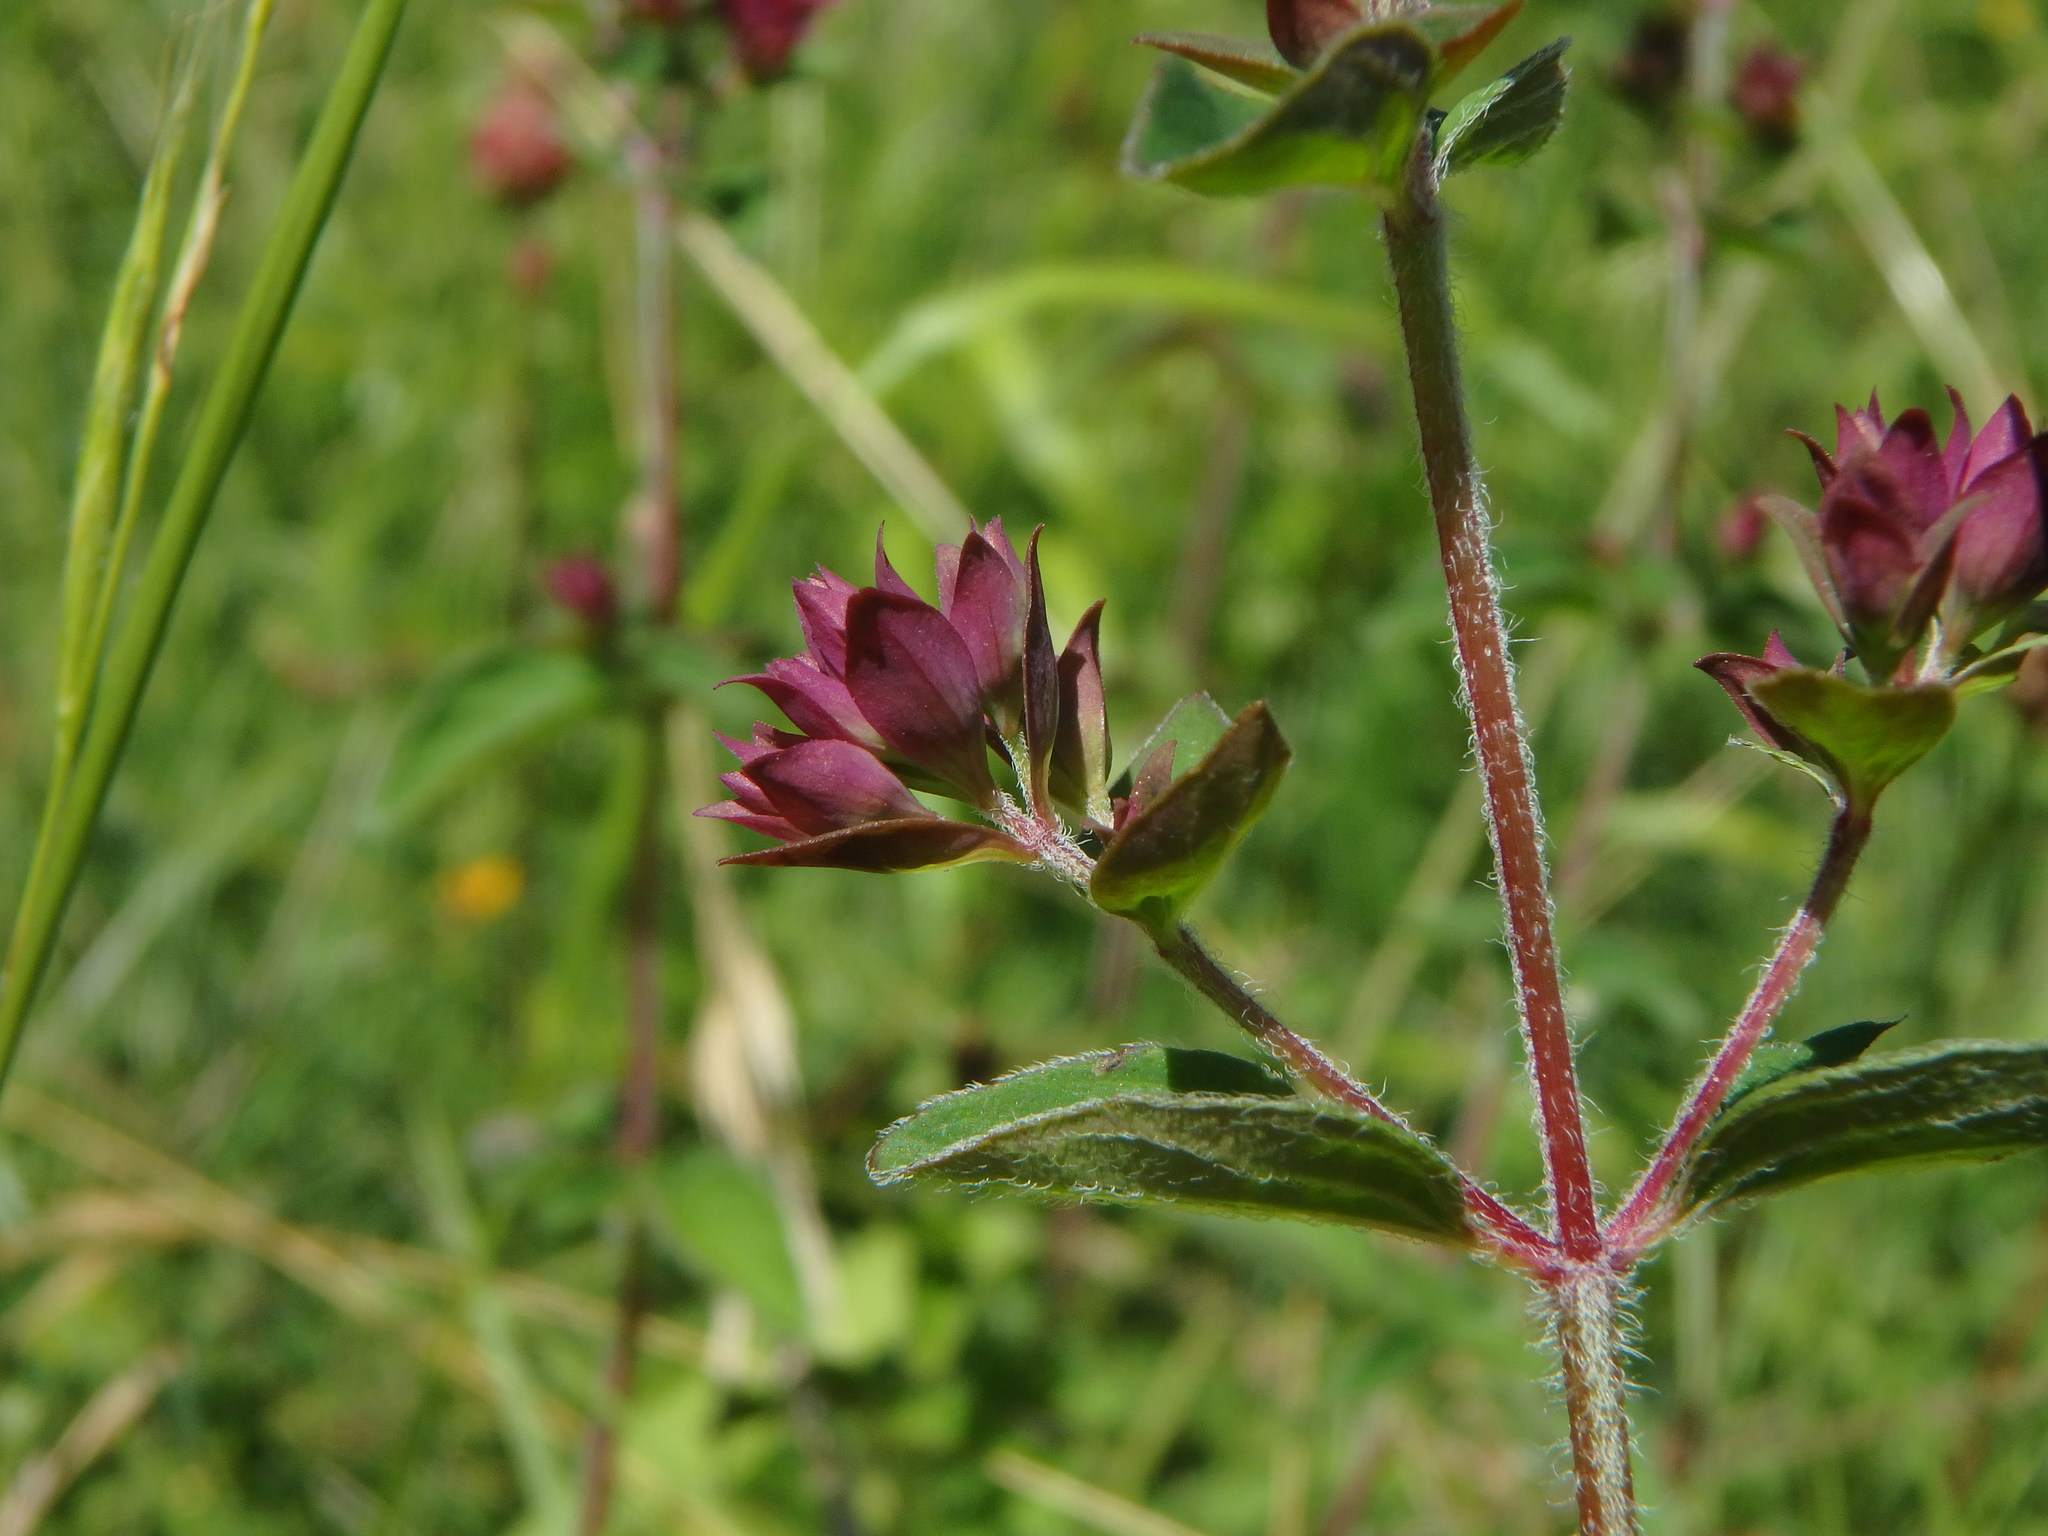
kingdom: Plantae
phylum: Tracheophyta
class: Magnoliopsida
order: Lamiales
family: Lamiaceae
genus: Origanum
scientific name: Origanum vulgare
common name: Wild marjoram
